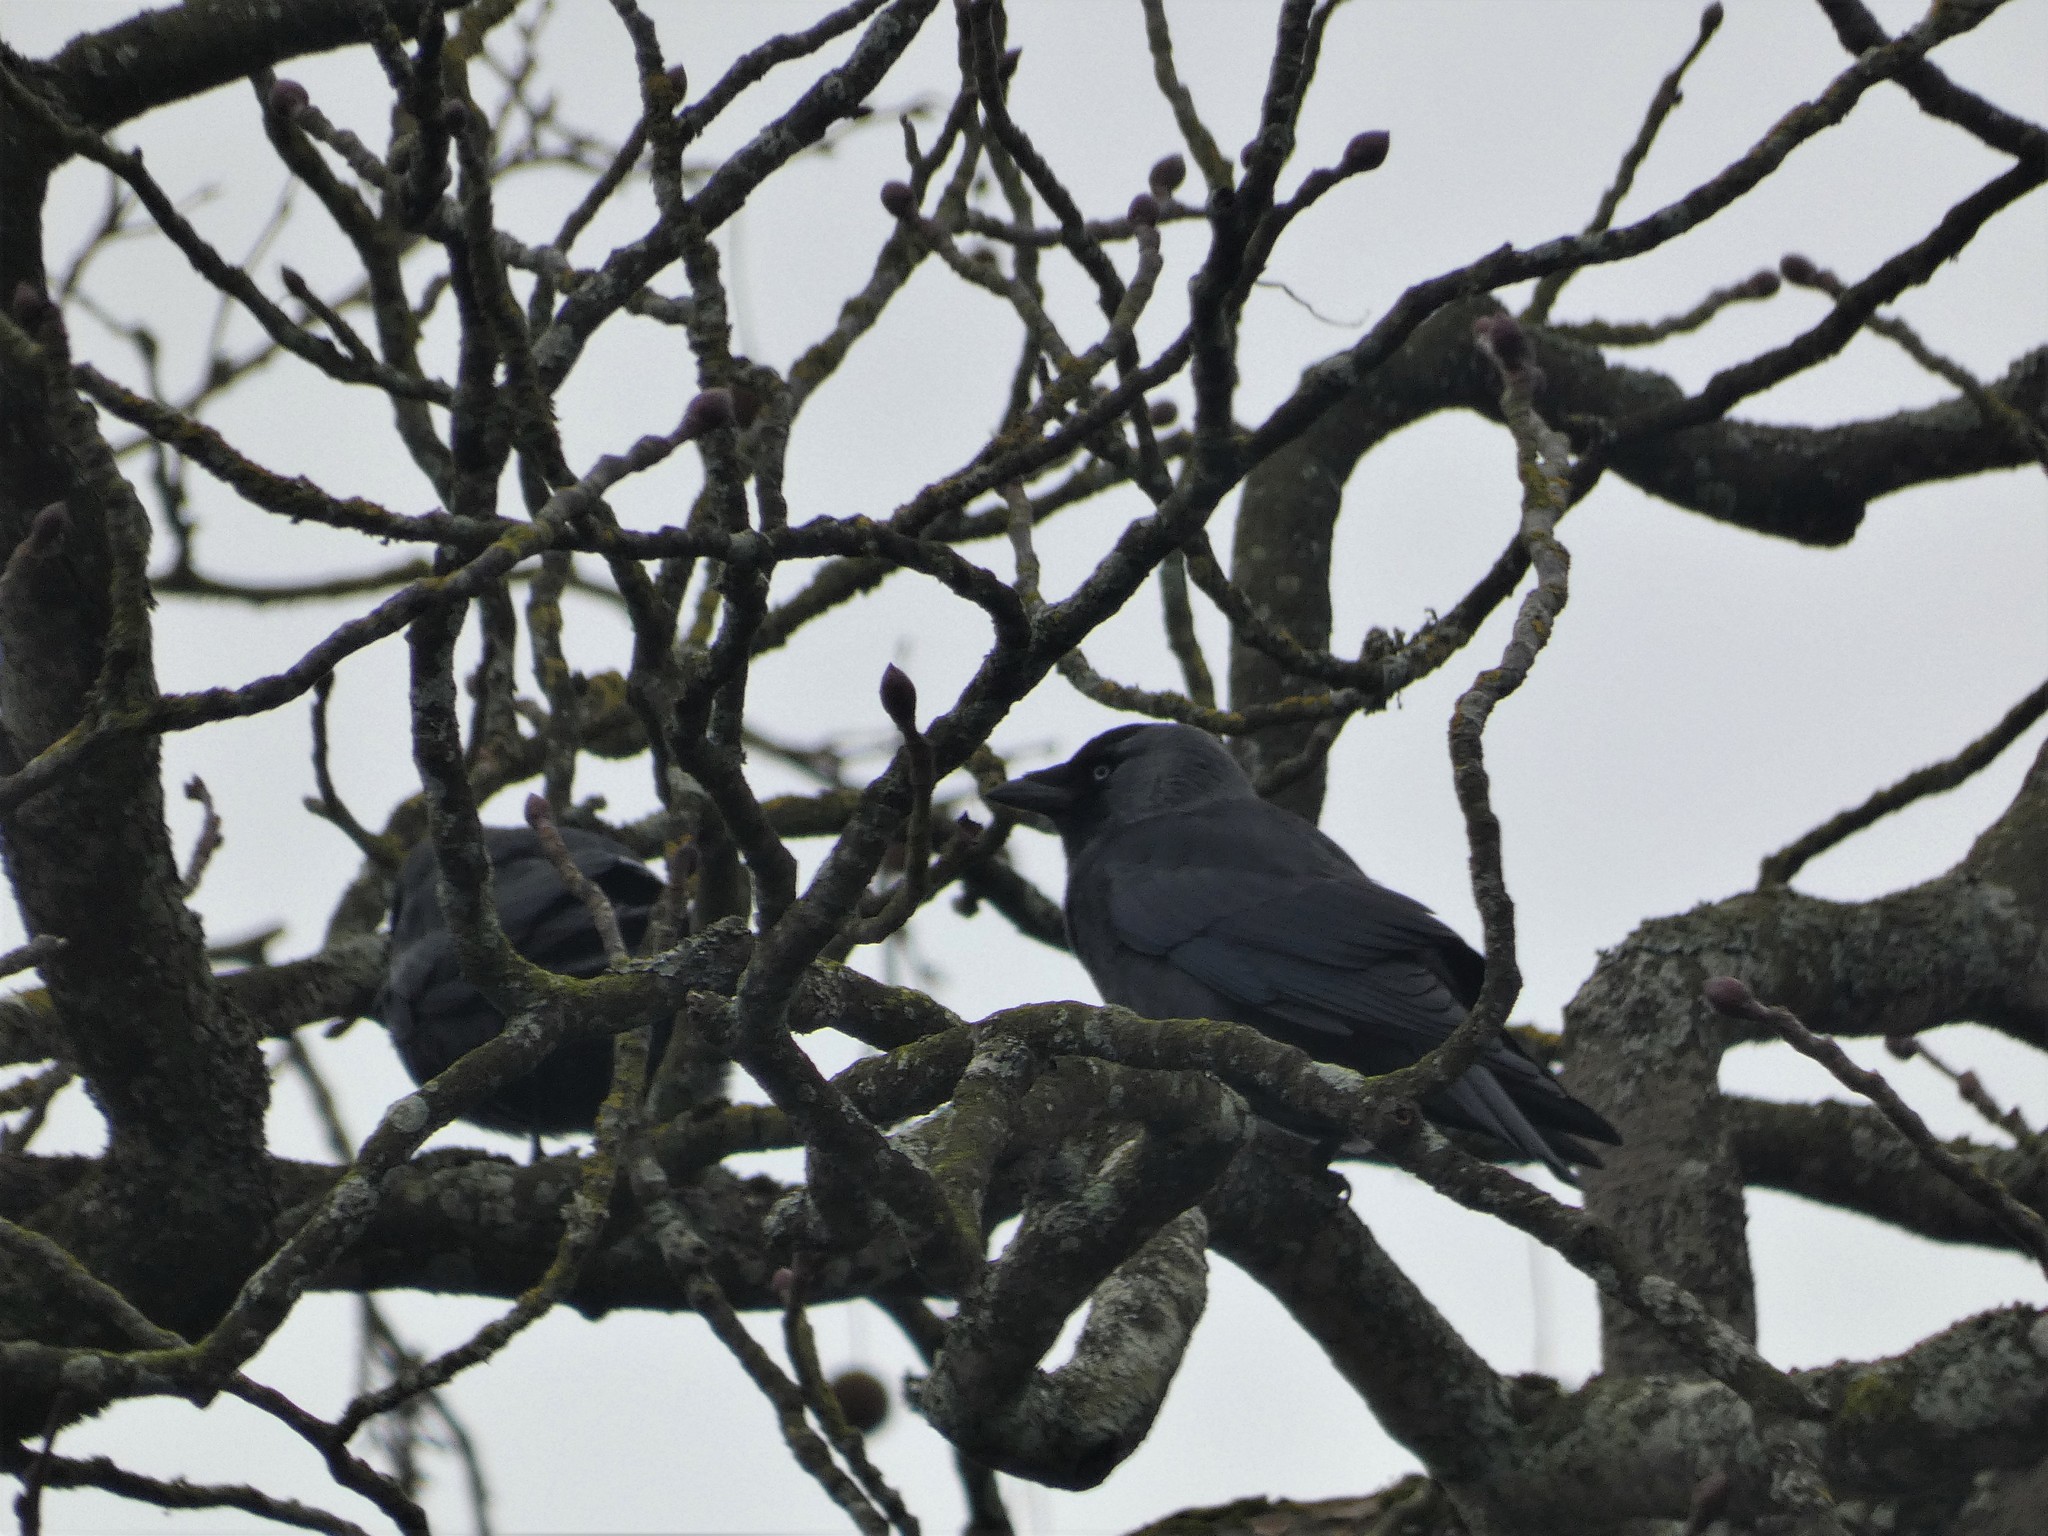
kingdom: Animalia
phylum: Chordata
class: Aves
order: Passeriformes
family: Corvidae
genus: Coloeus
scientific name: Coloeus monedula
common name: Western jackdaw
